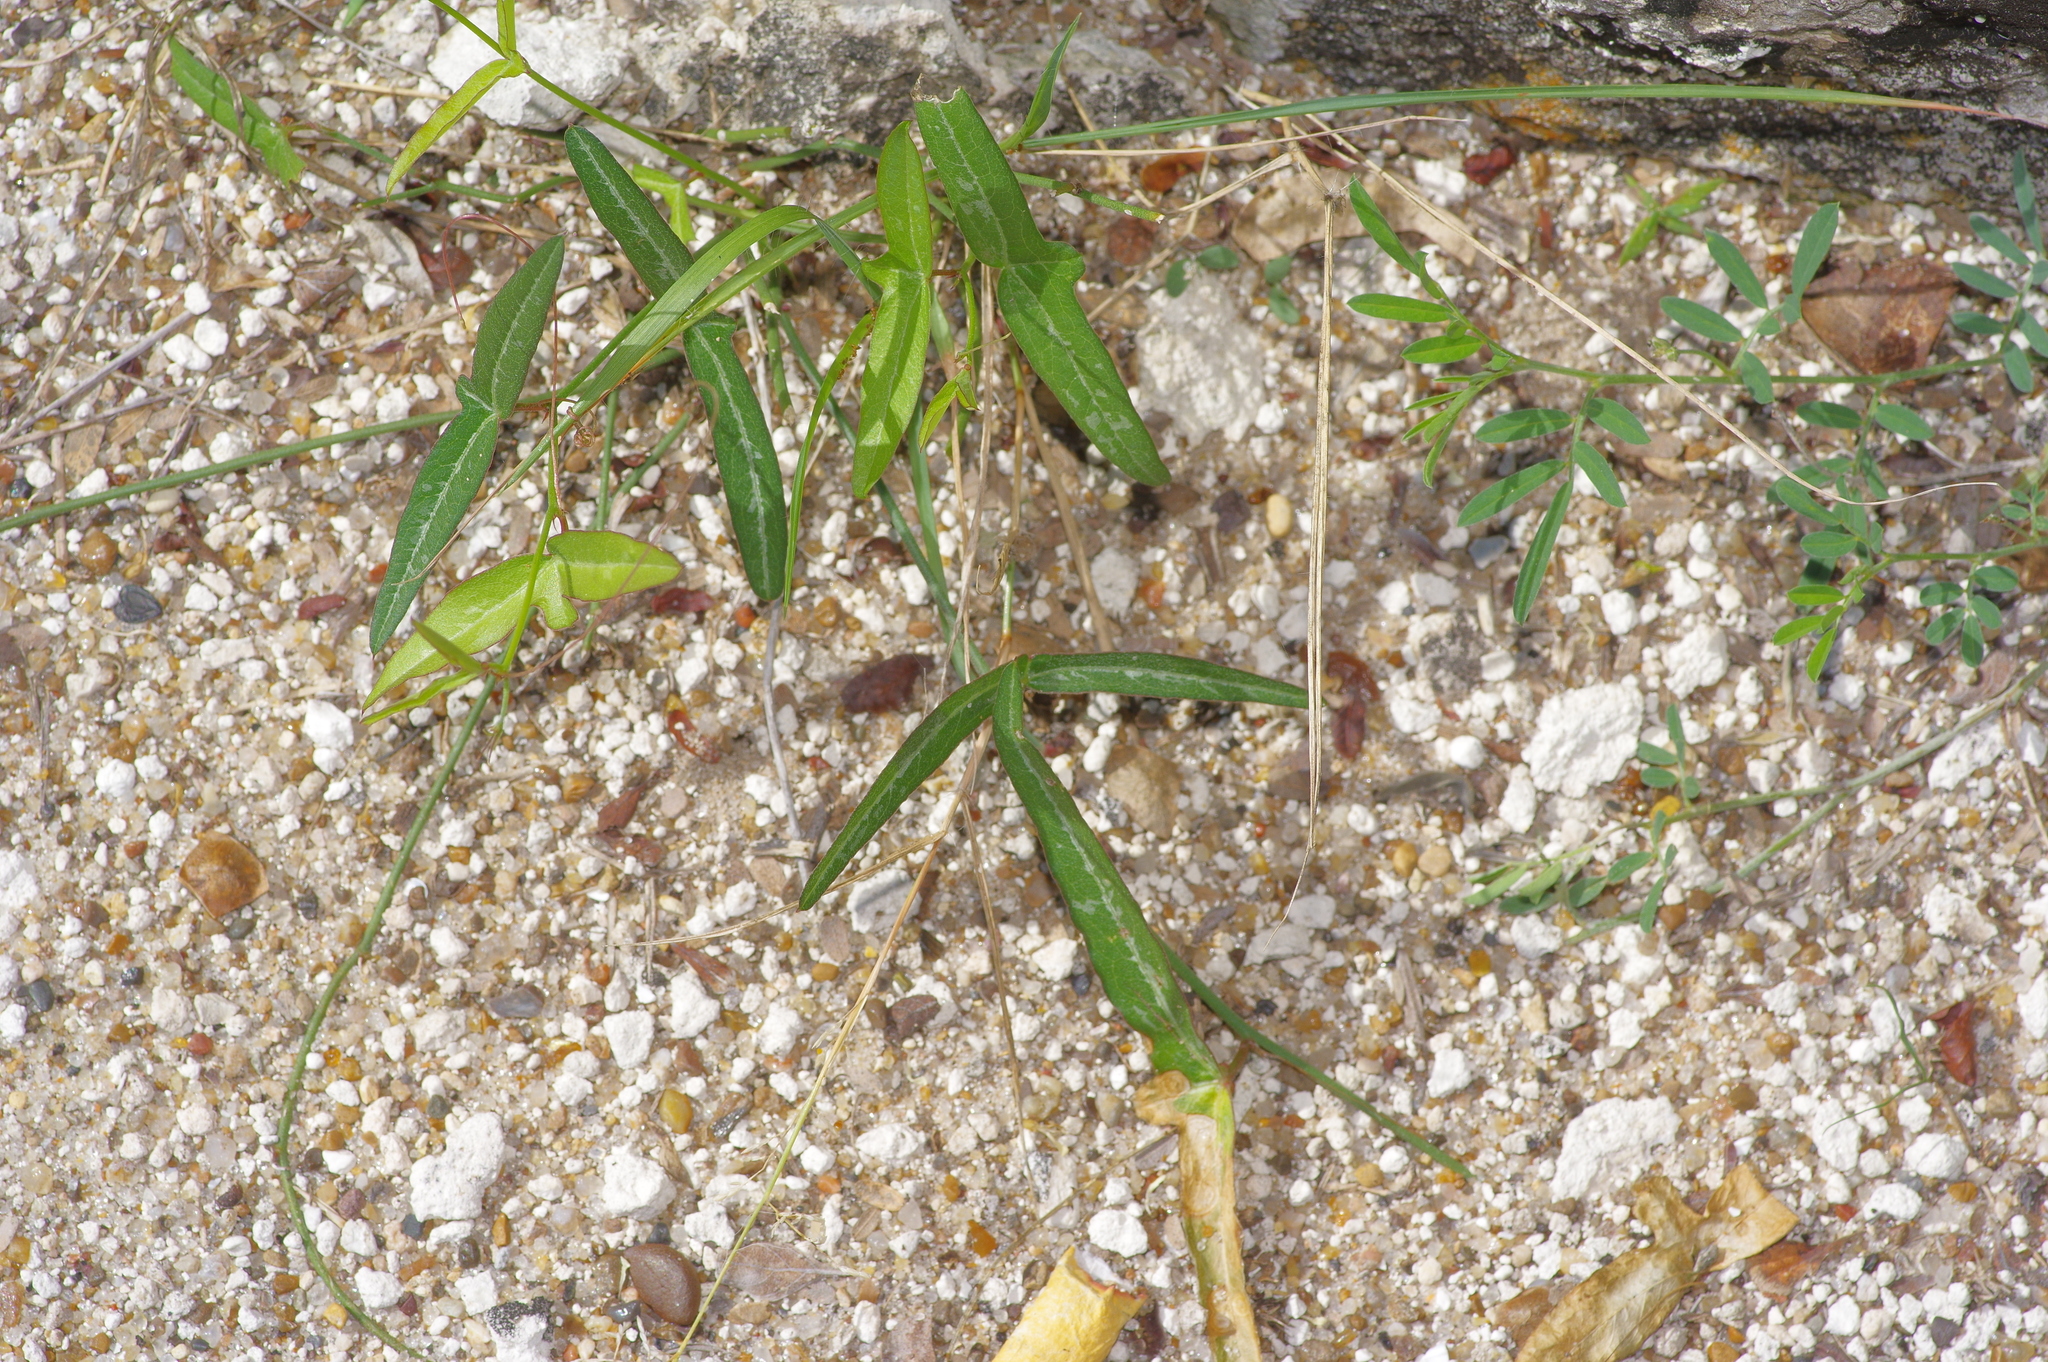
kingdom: Plantae
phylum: Tracheophyta
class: Magnoliopsida
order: Malpighiales
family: Passifloraceae
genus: Passiflora
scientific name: Passiflora tenuiloba
